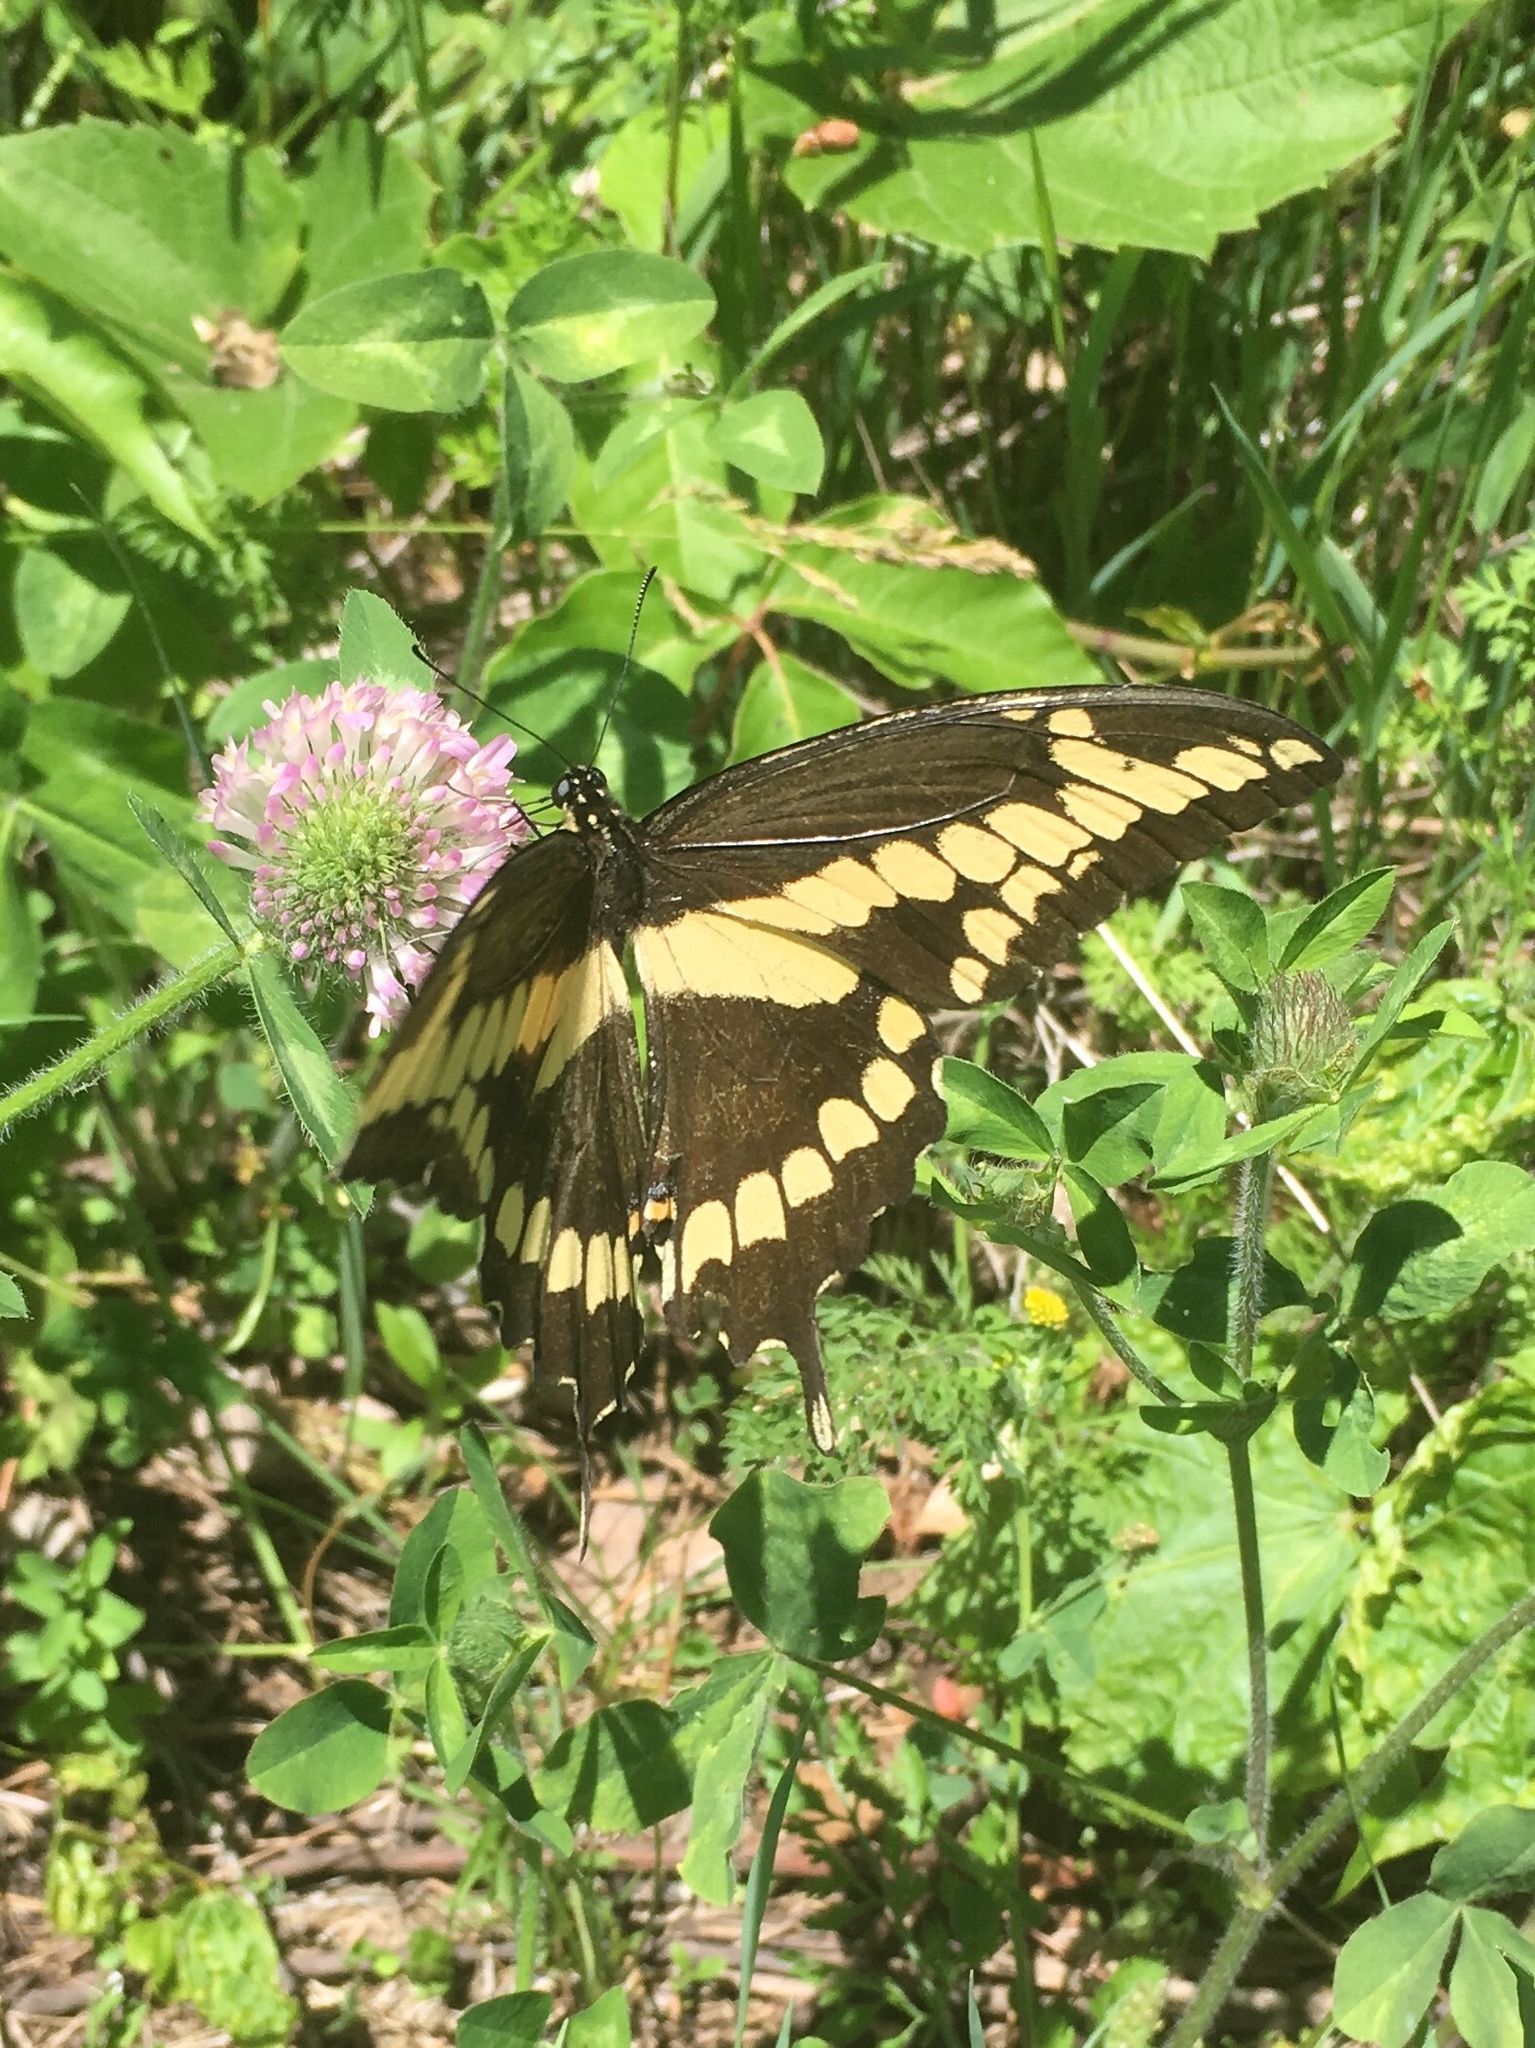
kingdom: Animalia
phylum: Arthropoda
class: Insecta
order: Lepidoptera
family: Papilionidae
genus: Papilio
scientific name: Papilio cresphontes
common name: Giant swallowtail
